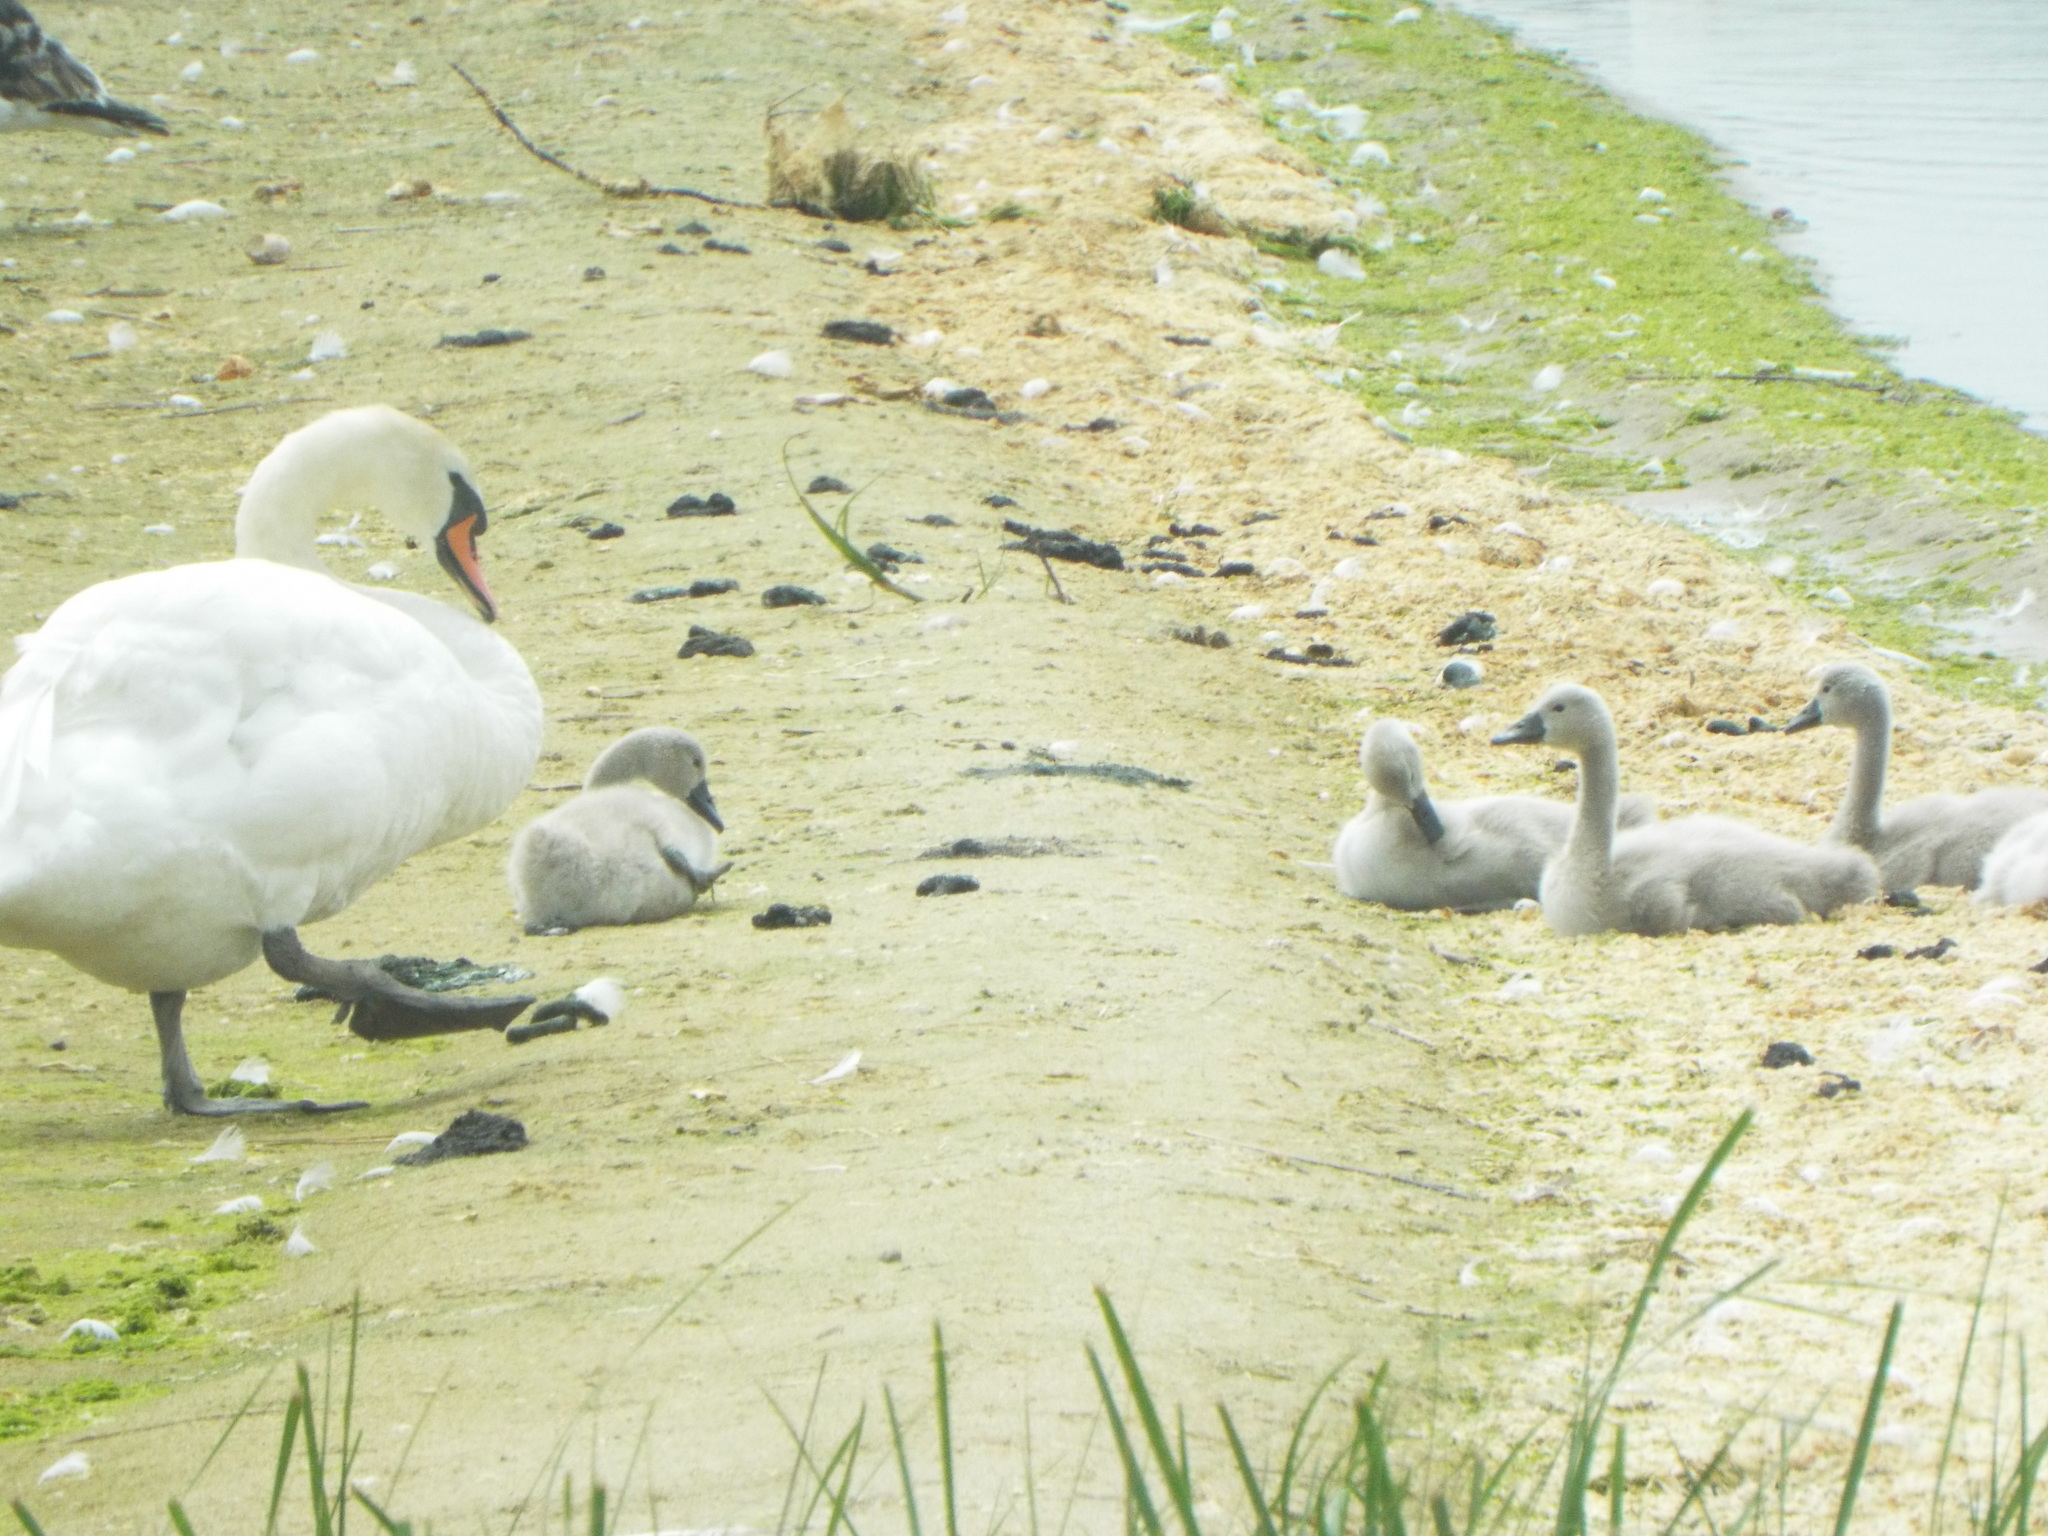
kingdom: Animalia
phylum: Chordata
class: Aves
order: Anseriformes
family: Anatidae
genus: Cygnus
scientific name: Cygnus olor
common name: Mute swan
